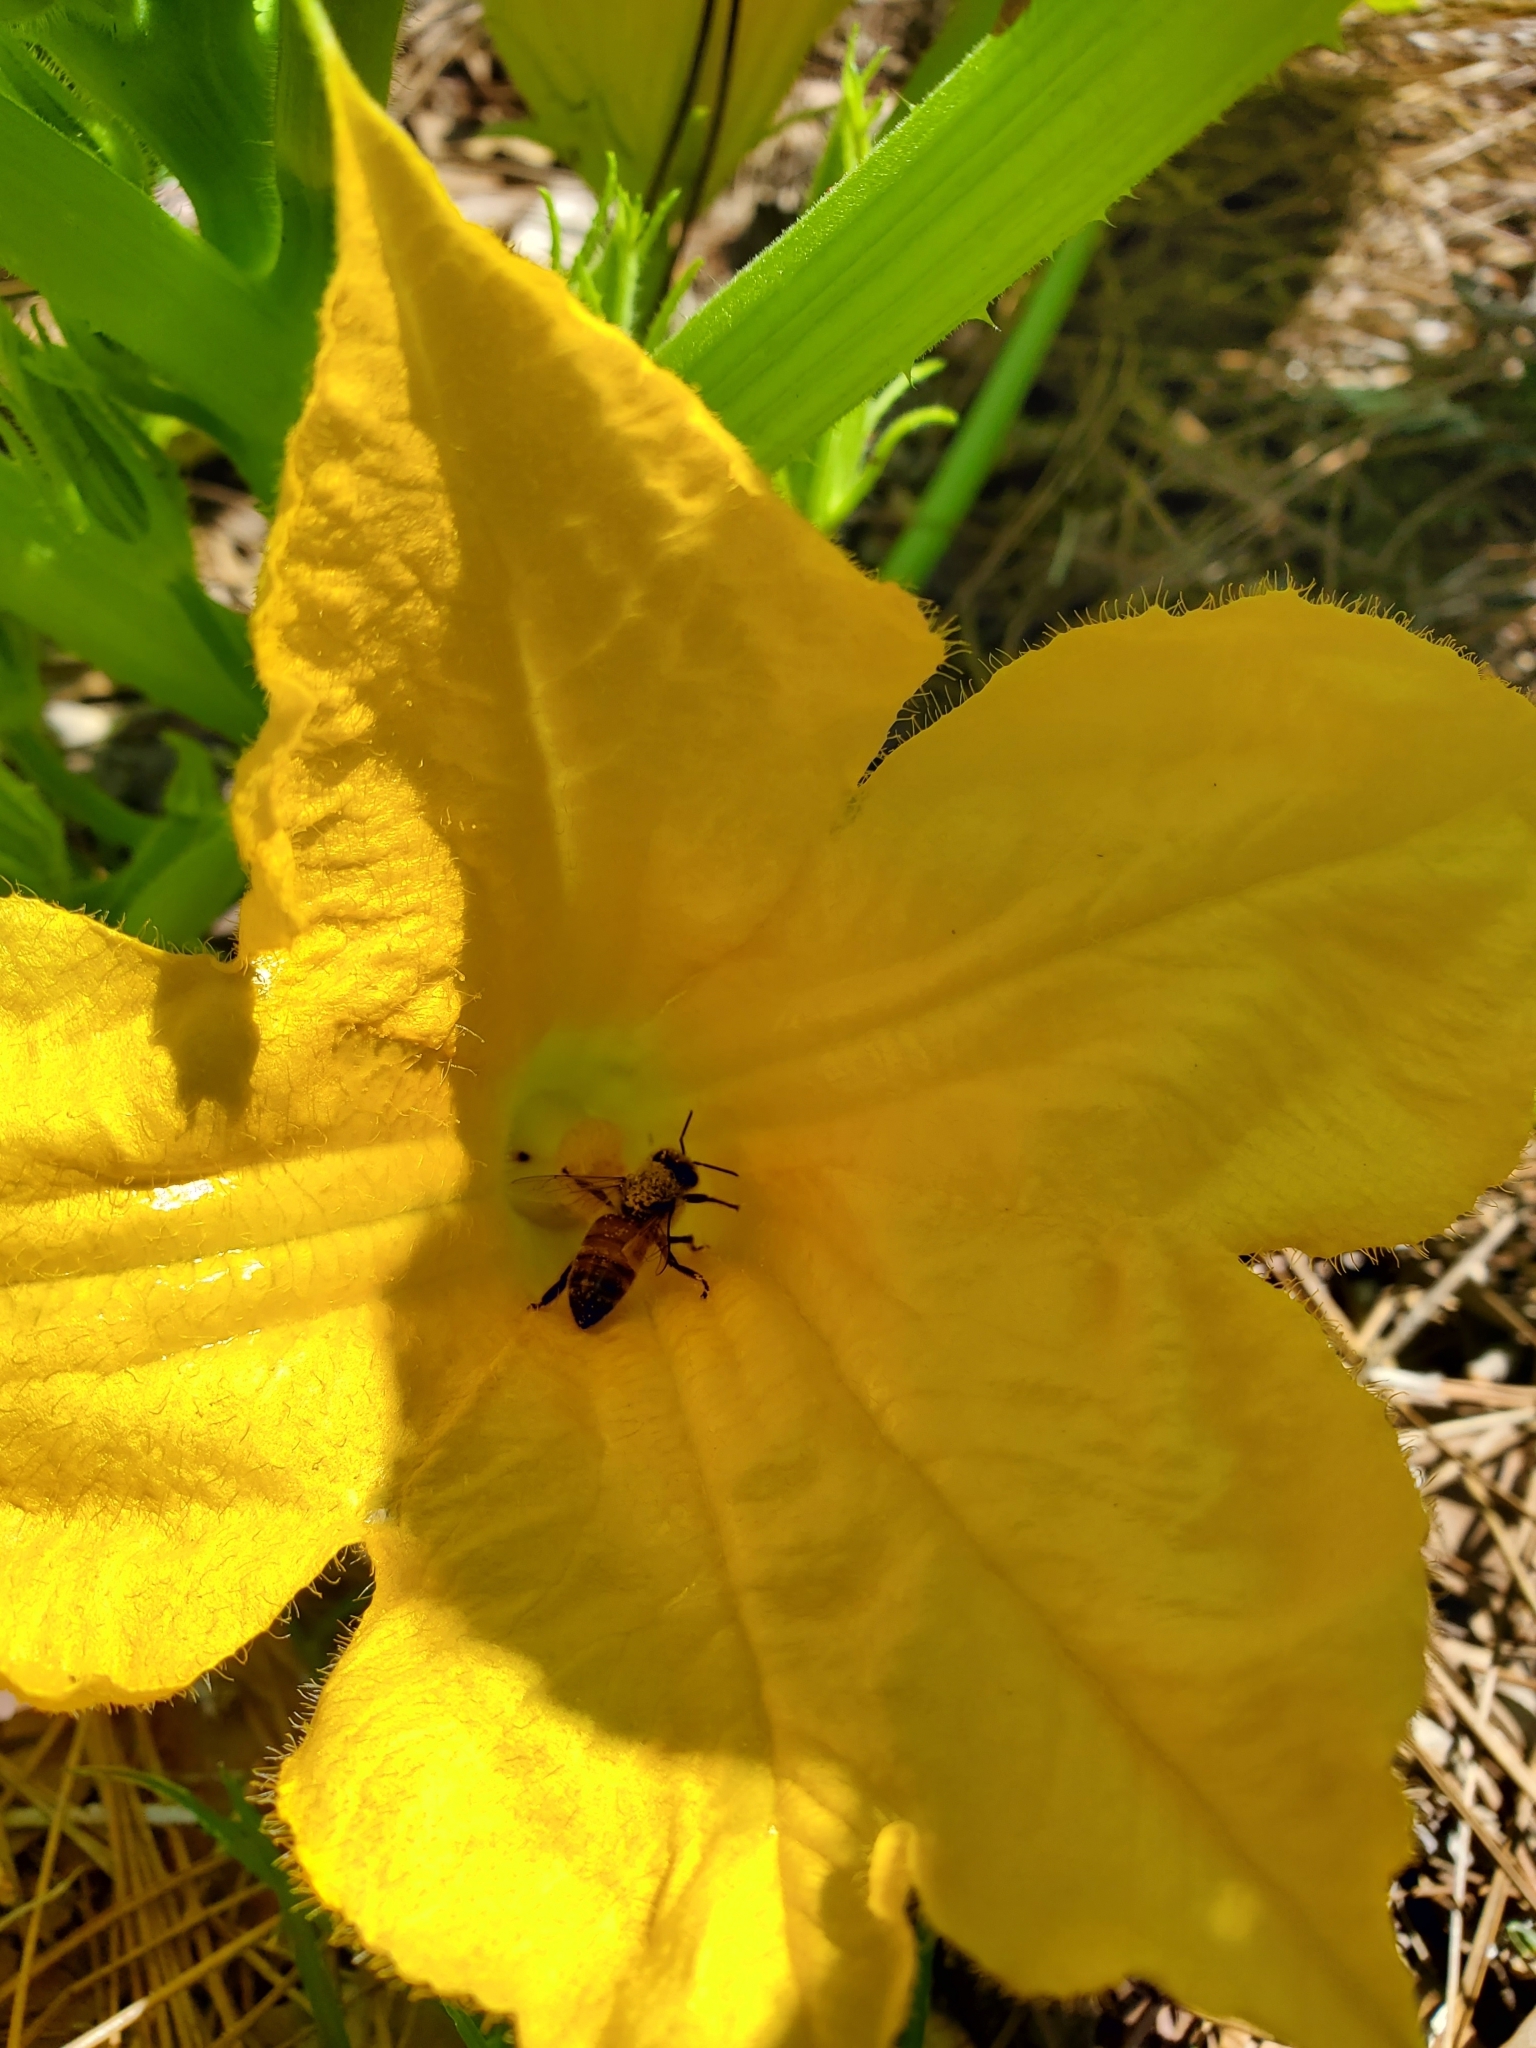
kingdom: Animalia
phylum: Arthropoda
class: Insecta
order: Hymenoptera
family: Apidae
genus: Apis
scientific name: Apis mellifera
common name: Honey bee
